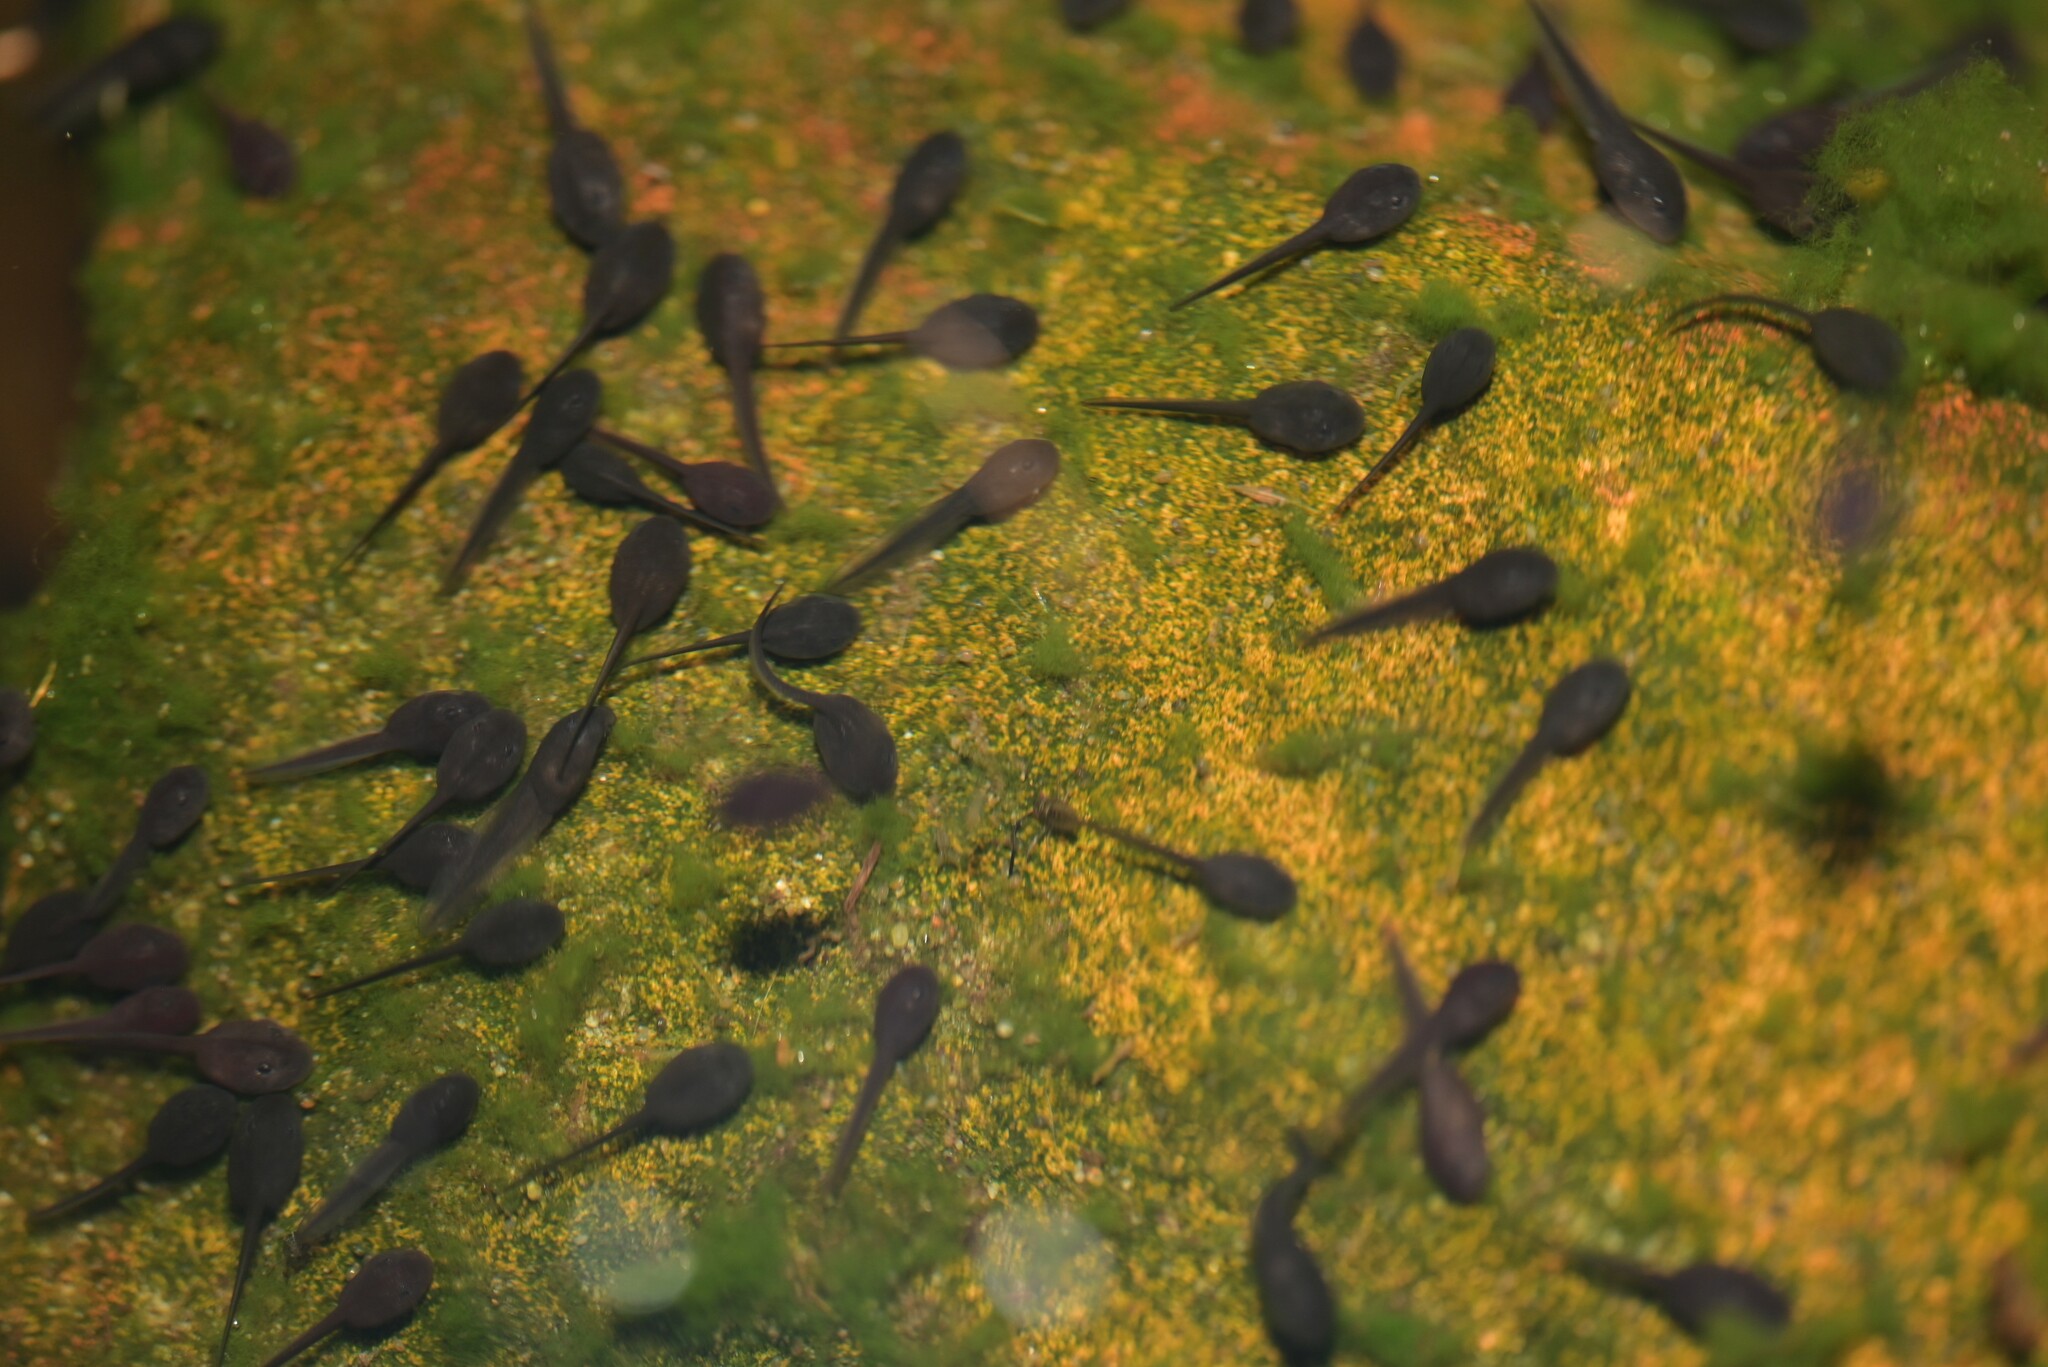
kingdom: Animalia
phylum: Chordata
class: Amphibia
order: Anura
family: Bufonidae
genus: Sclerophrys
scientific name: Sclerophrys pantherina
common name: Panther toad
